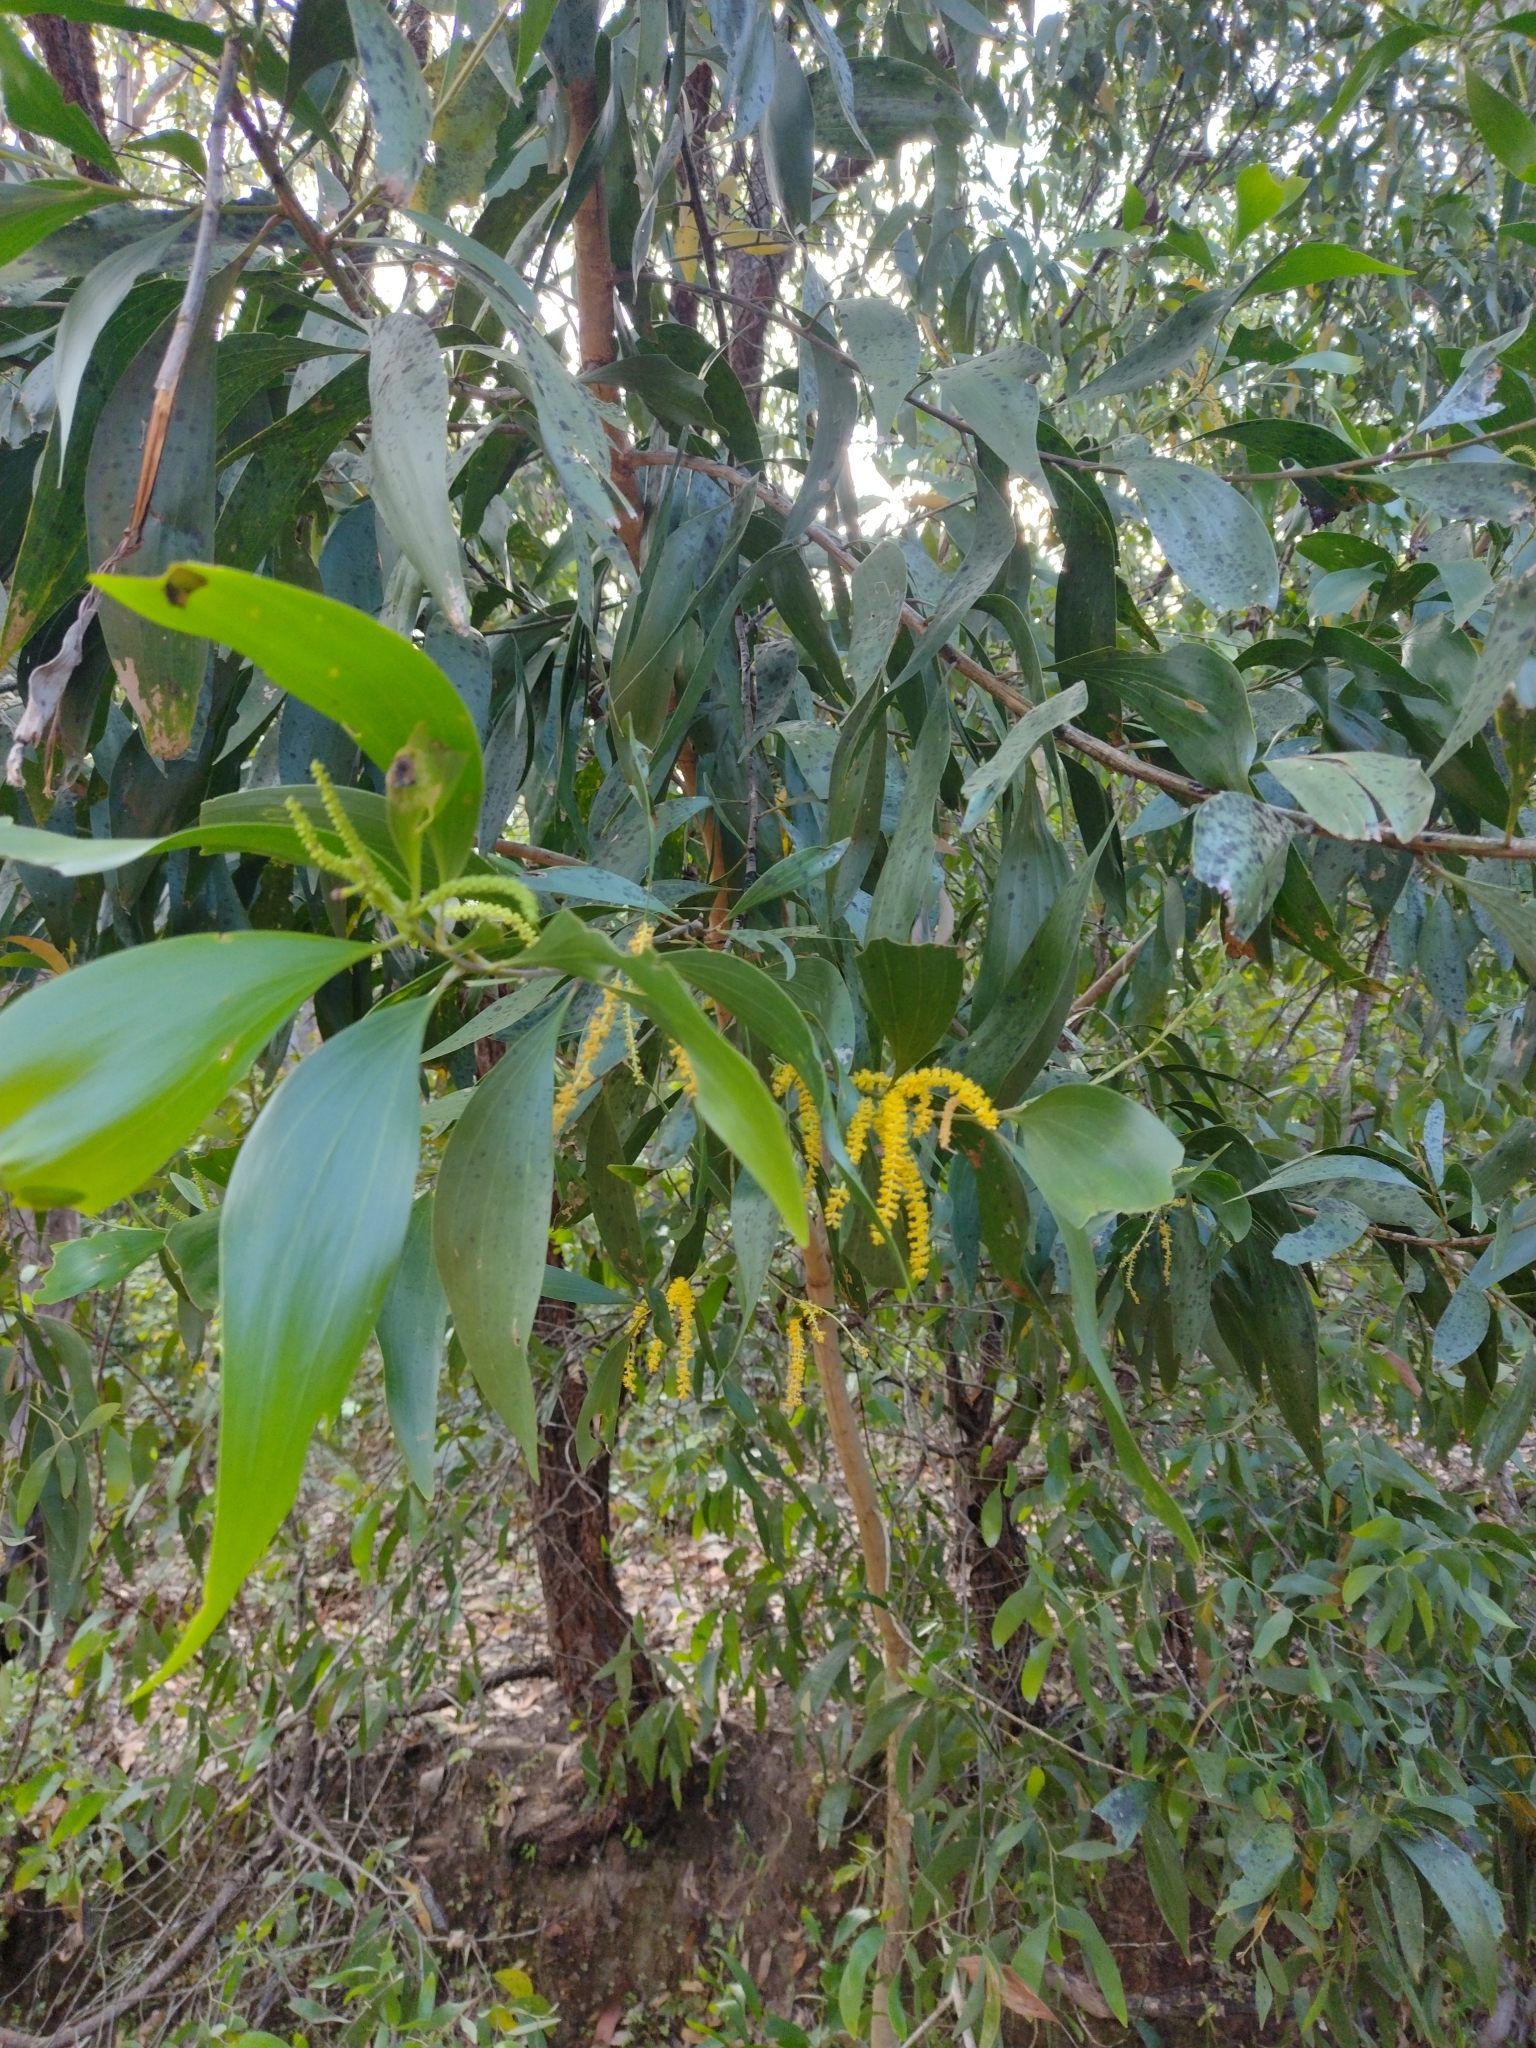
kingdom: Plantae
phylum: Tracheophyta
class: Magnoliopsida
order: Fabales
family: Fabaceae
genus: Acacia
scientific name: Acacia auriculiformis
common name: Earleaf acacia
